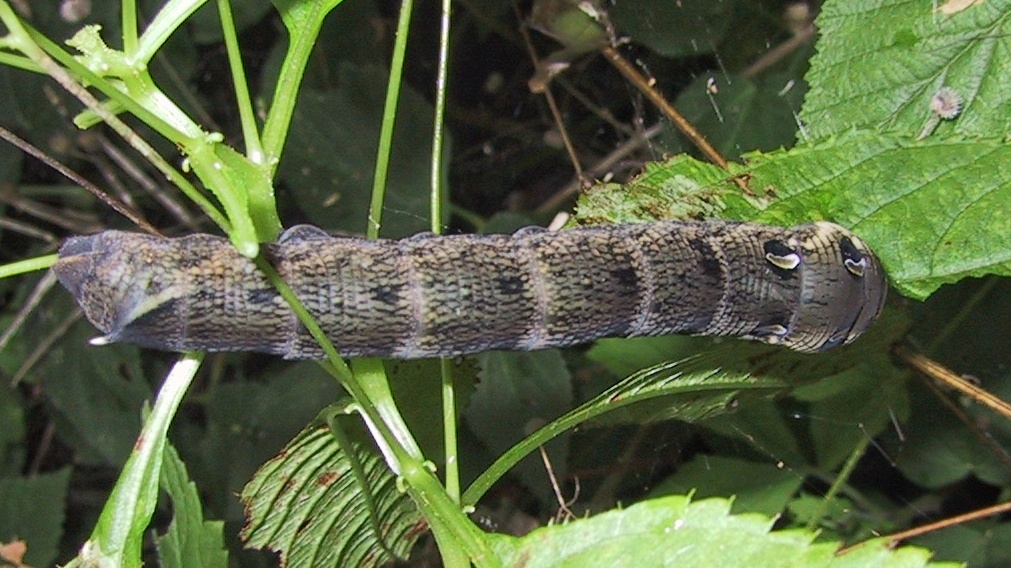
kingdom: Animalia
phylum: Arthropoda
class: Insecta
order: Lepidoptera
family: Sphingidae
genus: Deilephila
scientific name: Deilephila elpenor
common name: Elephant hawk-moth
